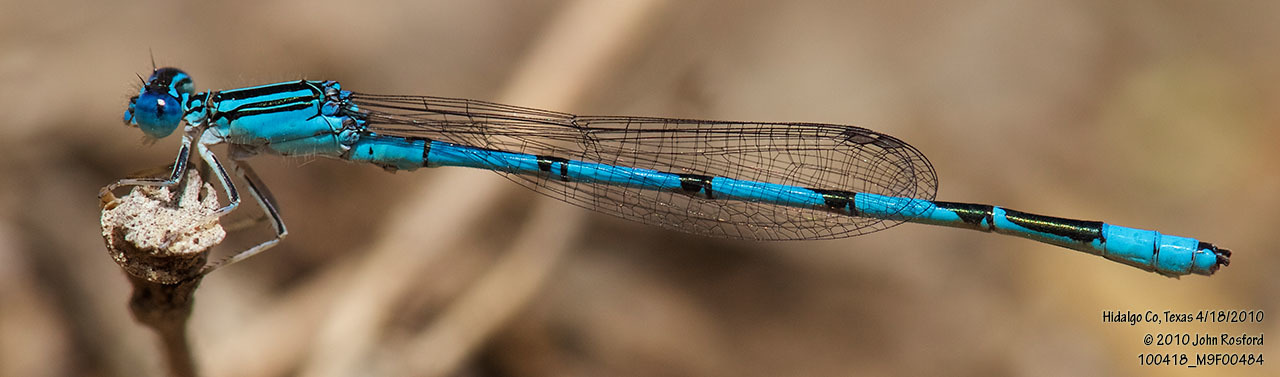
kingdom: Animalia
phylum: Arthropoda
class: Insecta
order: Odonata
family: Coenagrionidae
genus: Enallagma
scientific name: Enallagma basidens
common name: Double-striped bluet
